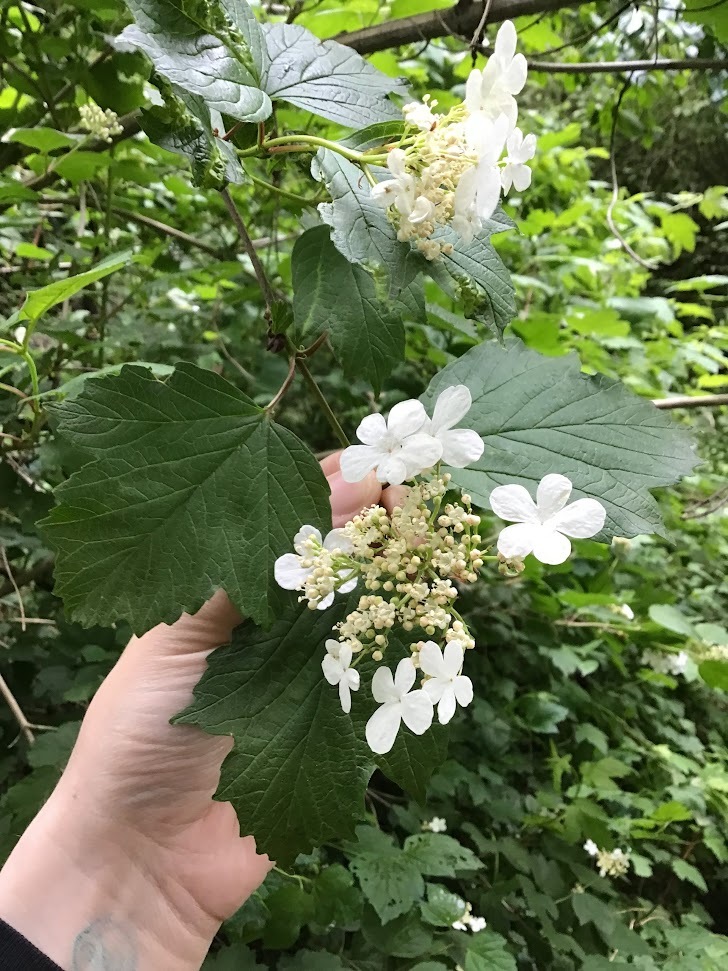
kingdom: Plantae
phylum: Tracheophyta
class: Magnoliopsida
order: Dipsacales
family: Viburnaceae
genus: Viburnum
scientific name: Viburnum opulus
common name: Guelder-rose
